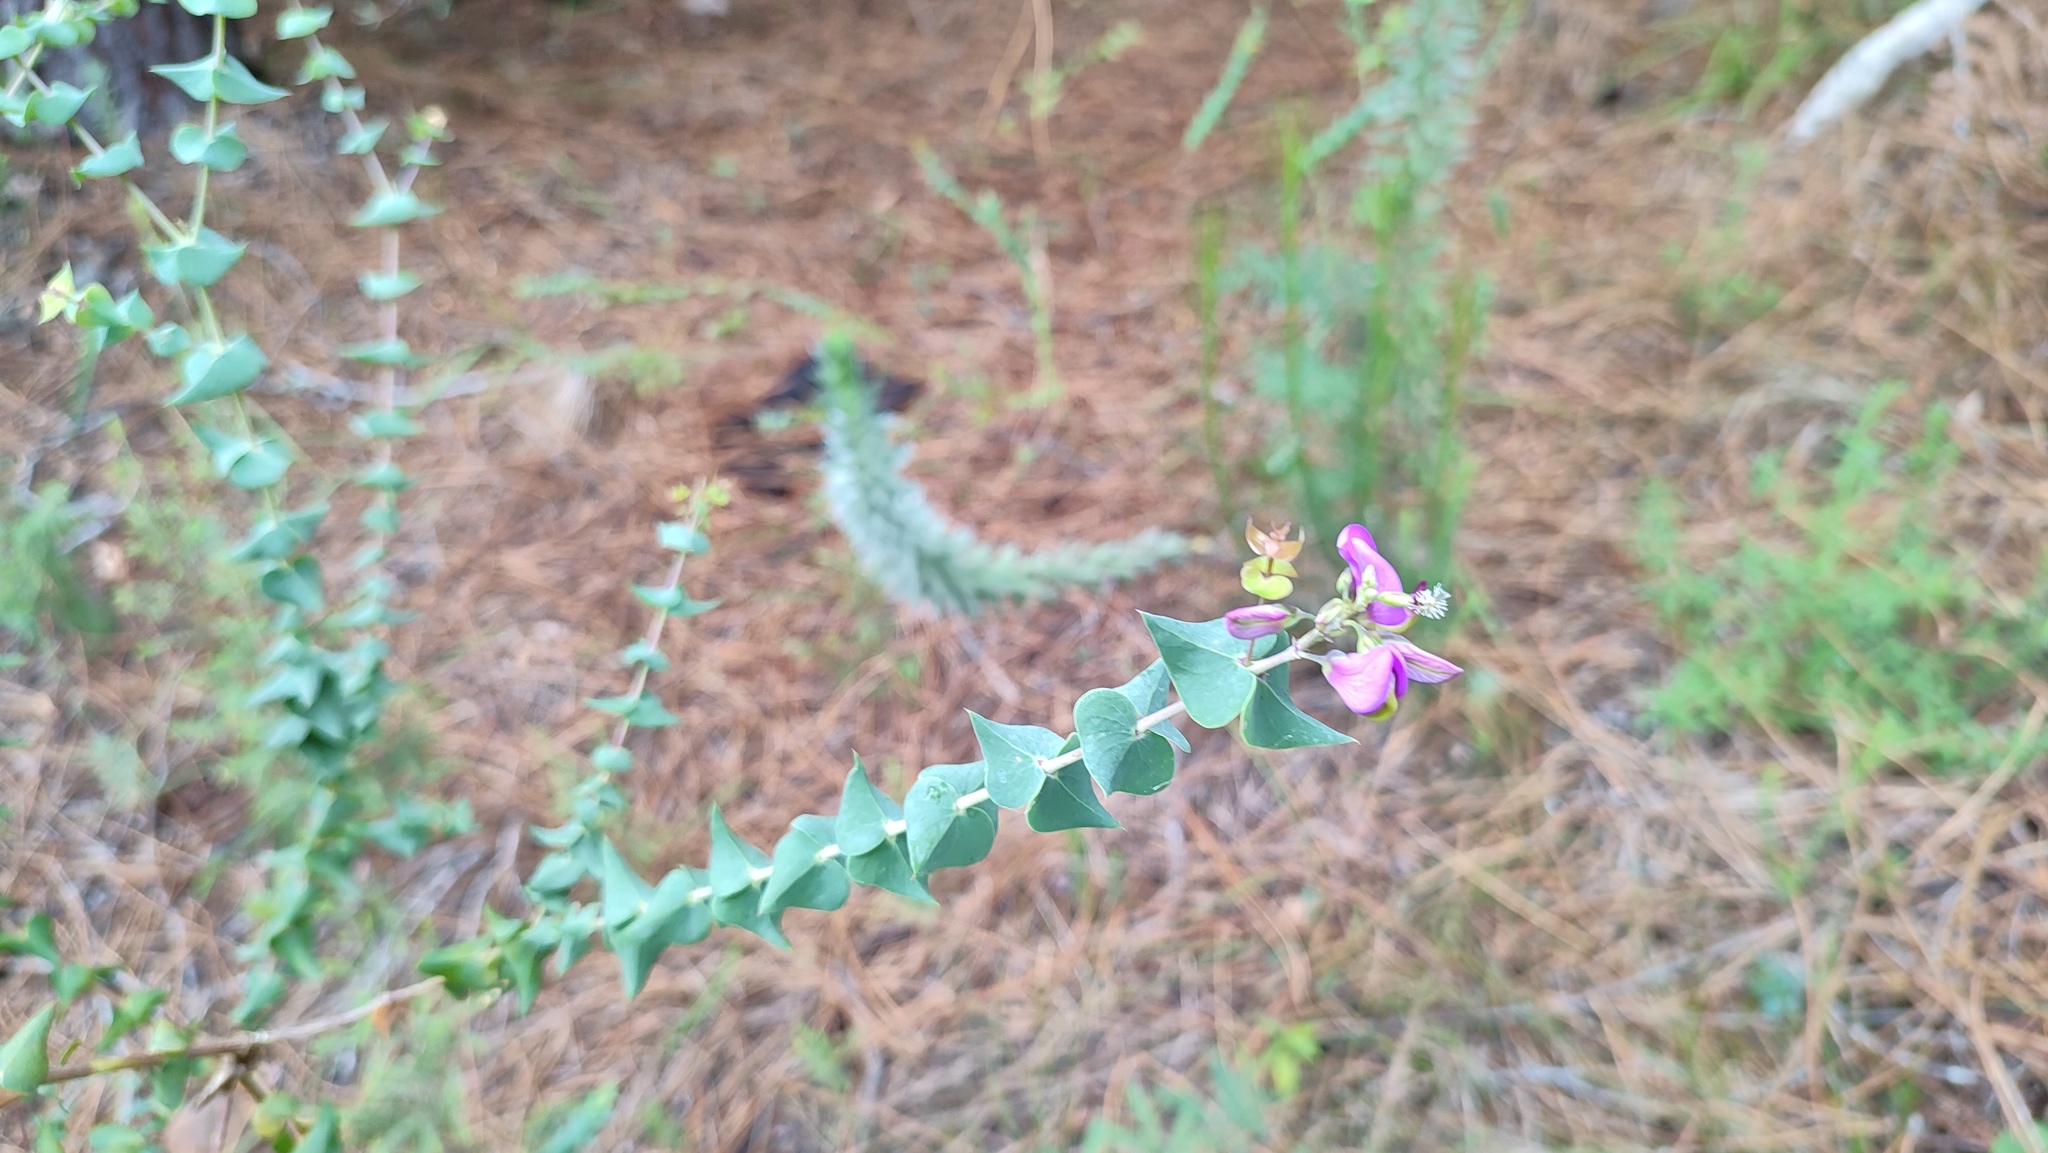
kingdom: Plantae
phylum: Tracheophyta
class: Magnoliopsida
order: Fabales
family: Polygalaceae
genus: Polygala
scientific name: Polygala fruticosa
